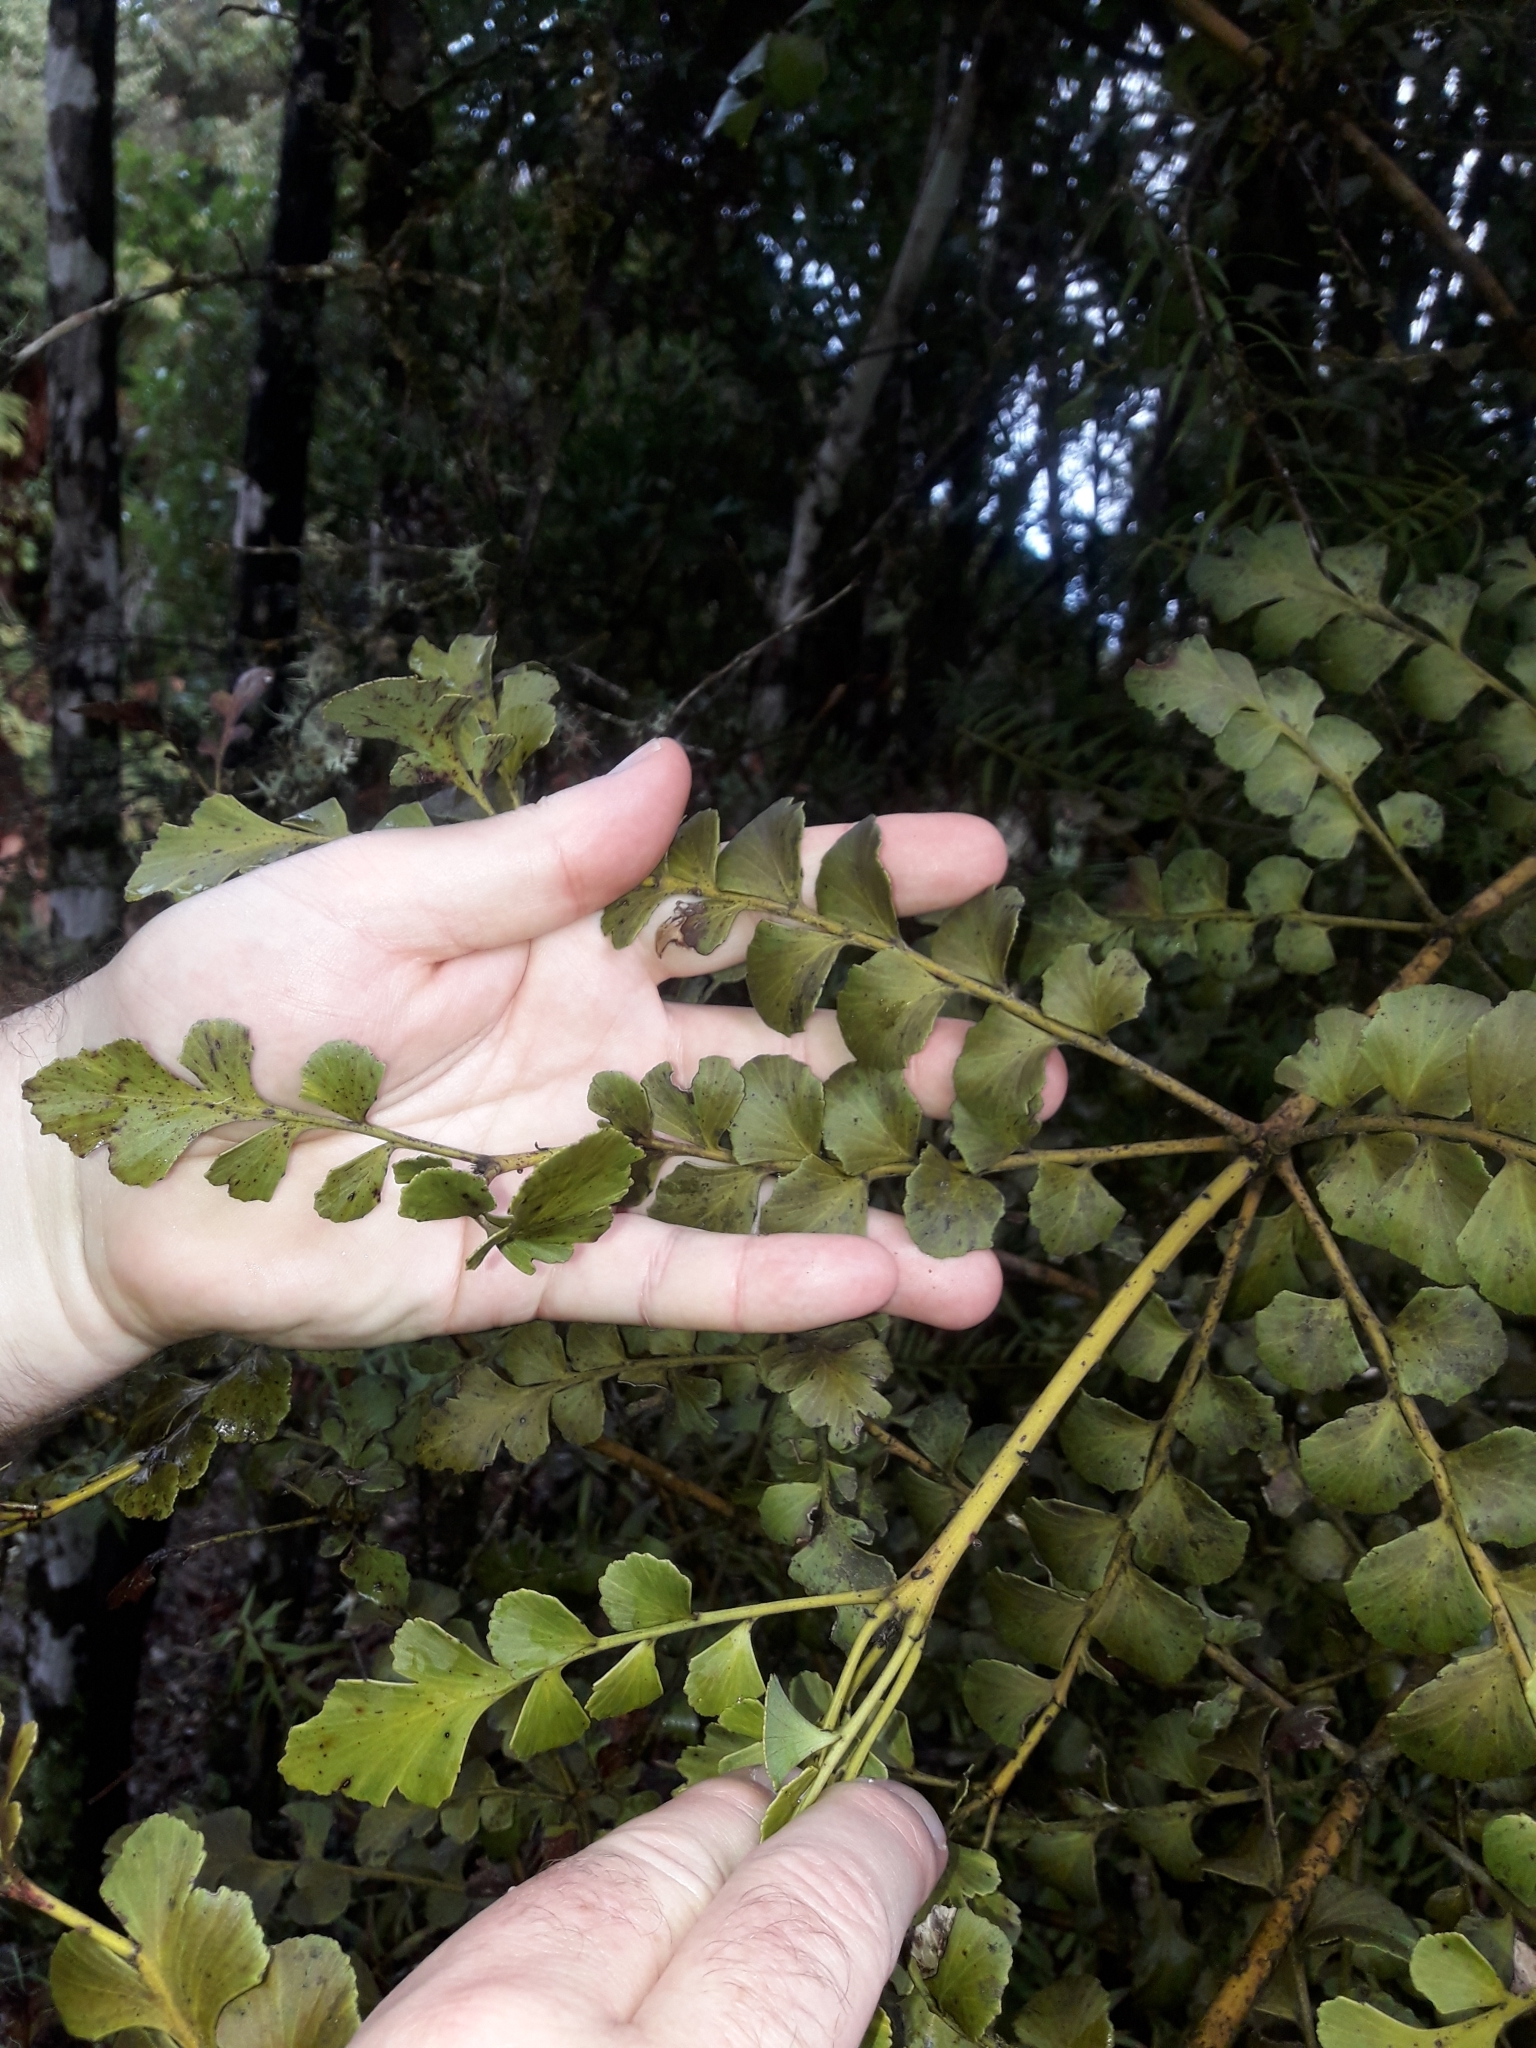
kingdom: Plantae
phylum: Tracheophyta
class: Pinopsida
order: Pinales
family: Phyllocladaceae
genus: Phyllocladus
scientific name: Phyllocladus toatoa
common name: Celery-top pine
